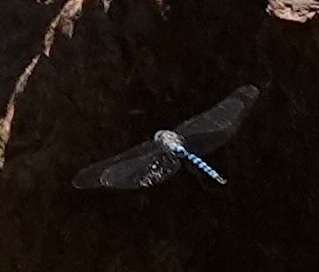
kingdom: Animalia
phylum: Arthropoda
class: Insecta
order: Odonata
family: Aeshnidae
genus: Aeshna
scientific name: Aeshna walkeri
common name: Walker's darner
